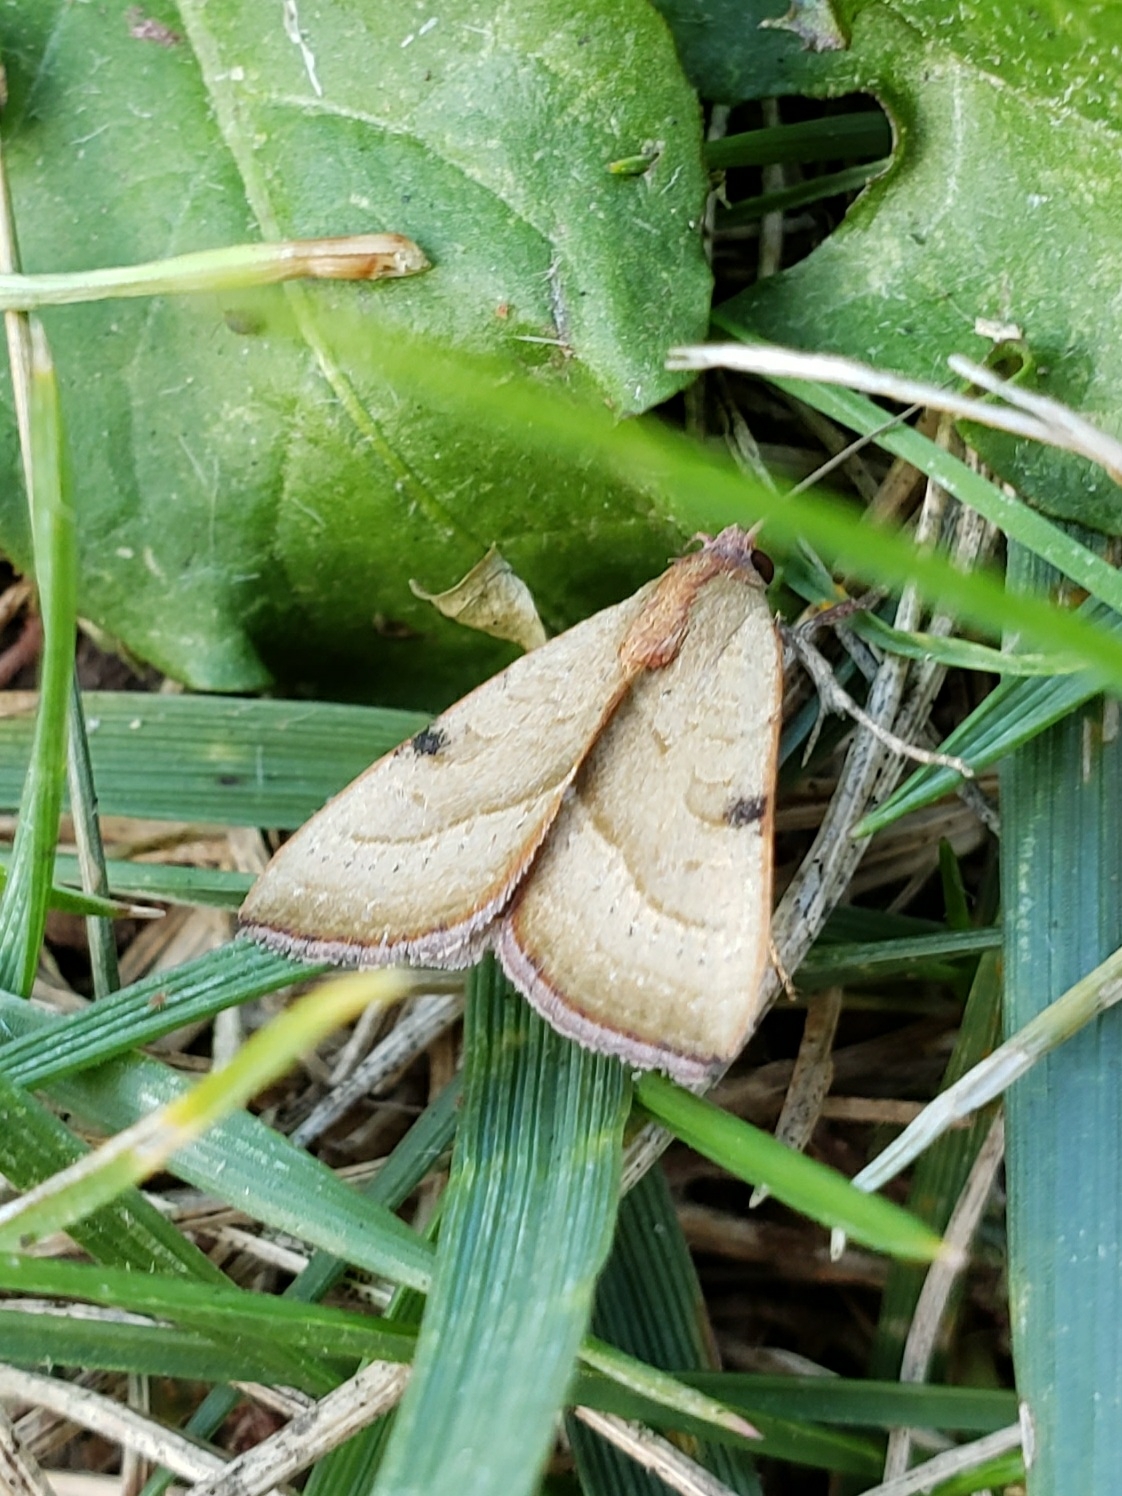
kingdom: Animalia
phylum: Arthropoda
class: Insecta
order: Lepidoptera
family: Noctuidae
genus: Galgula
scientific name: Galgula partita
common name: Wedgeling
